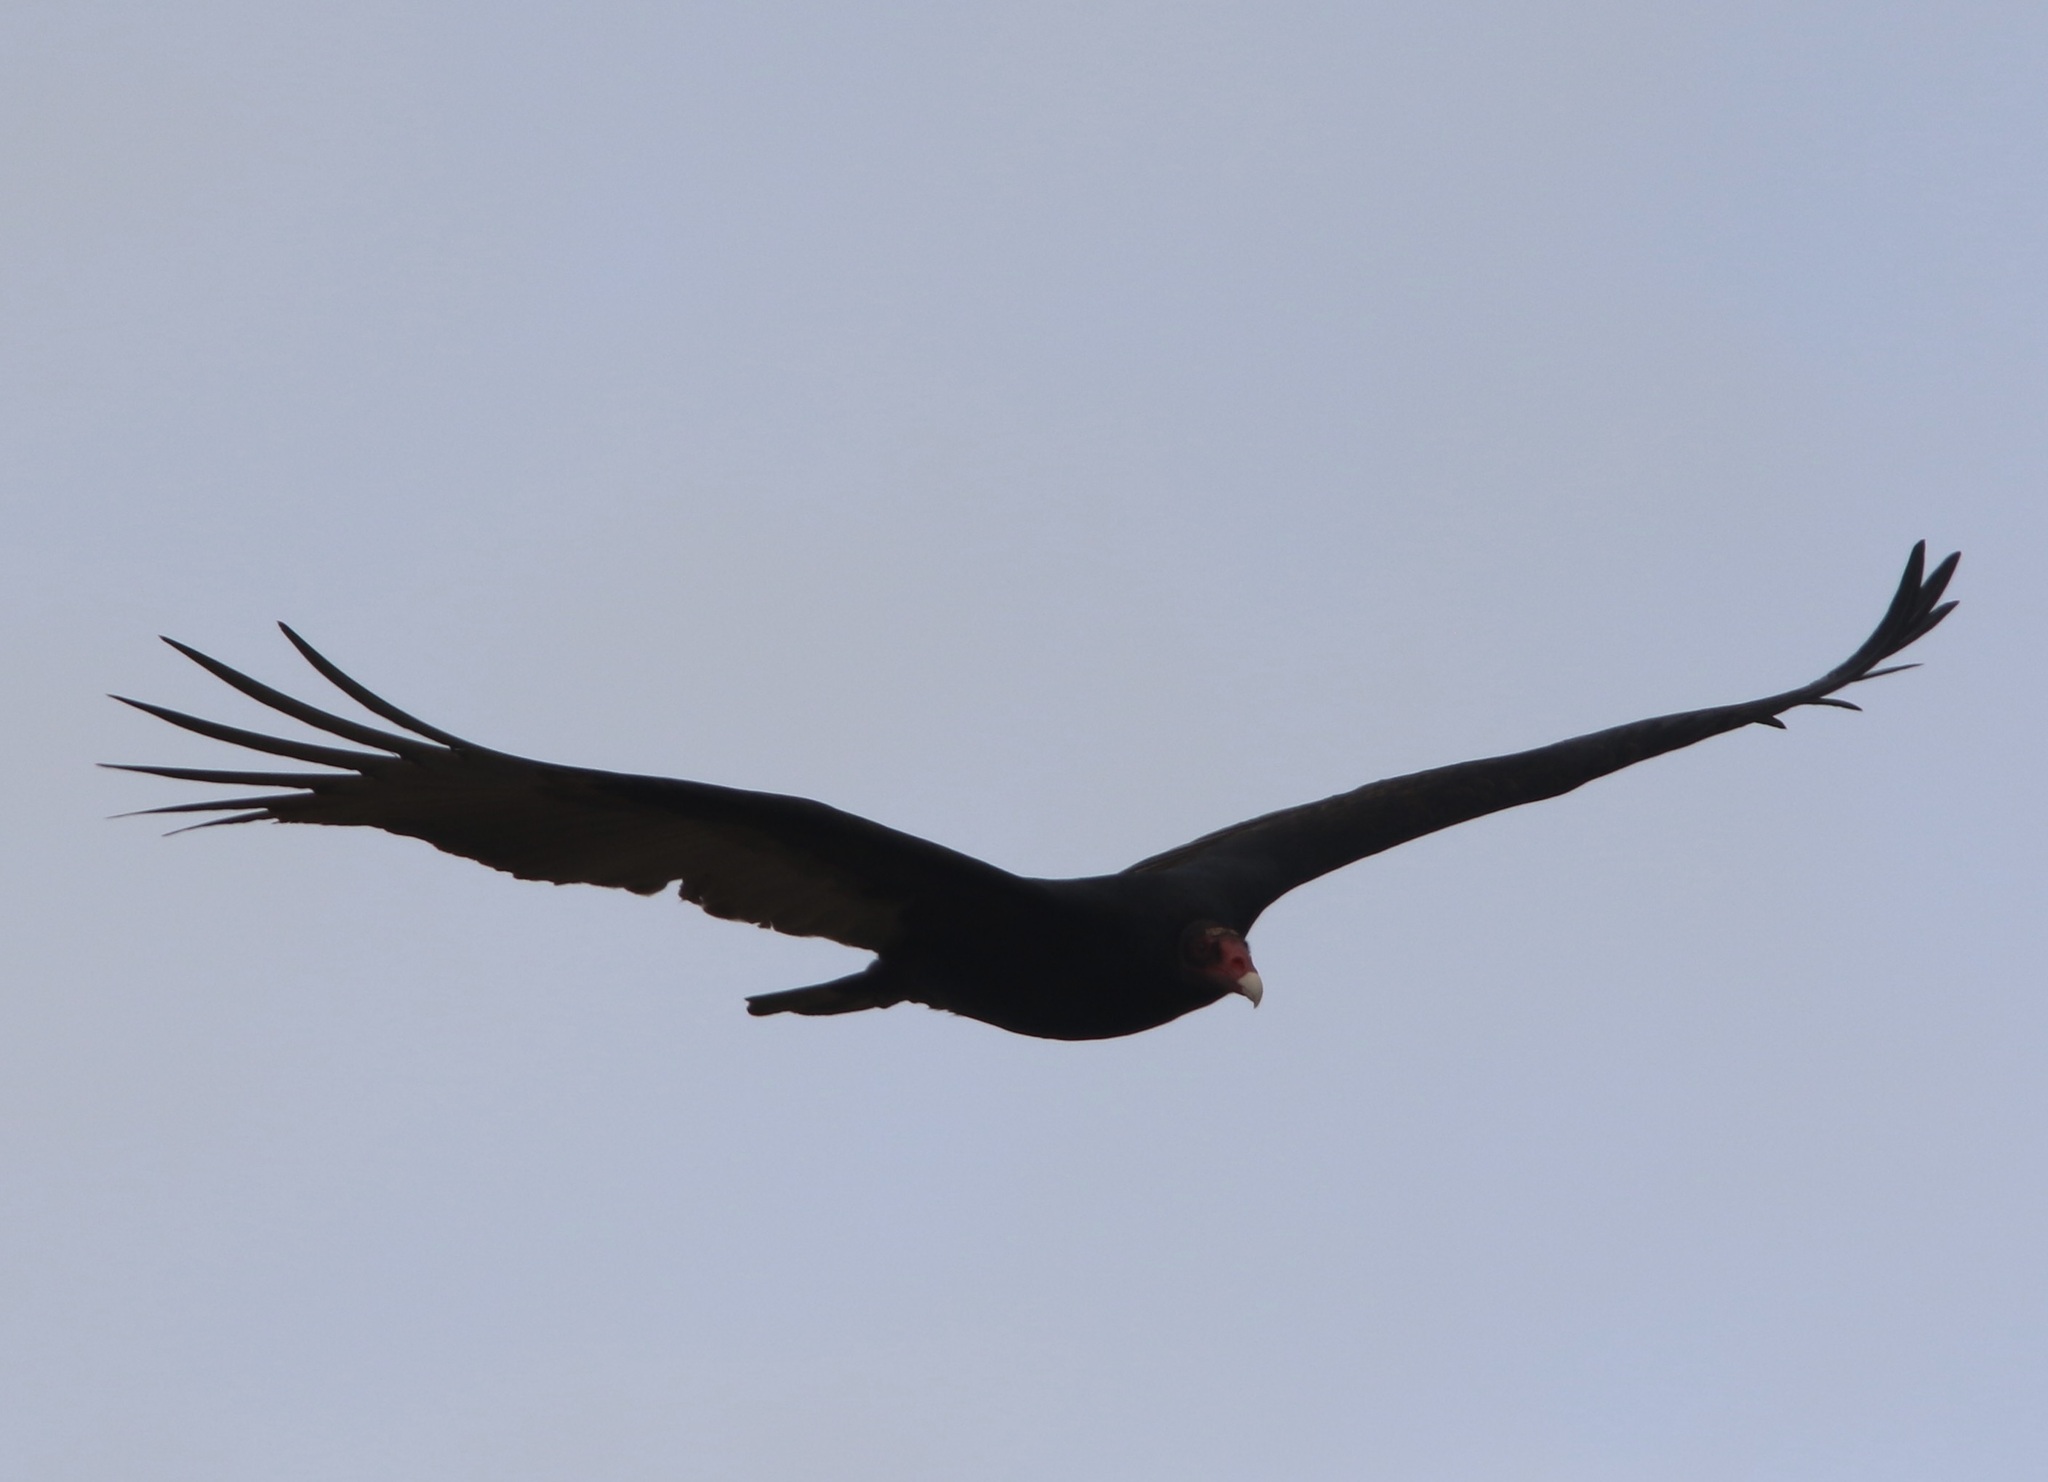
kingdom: Animalia
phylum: Chordata
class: Aves
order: Accipitriformes
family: Cathartidae
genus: Cathartes
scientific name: Cathartes aura
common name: Turkey vulture
